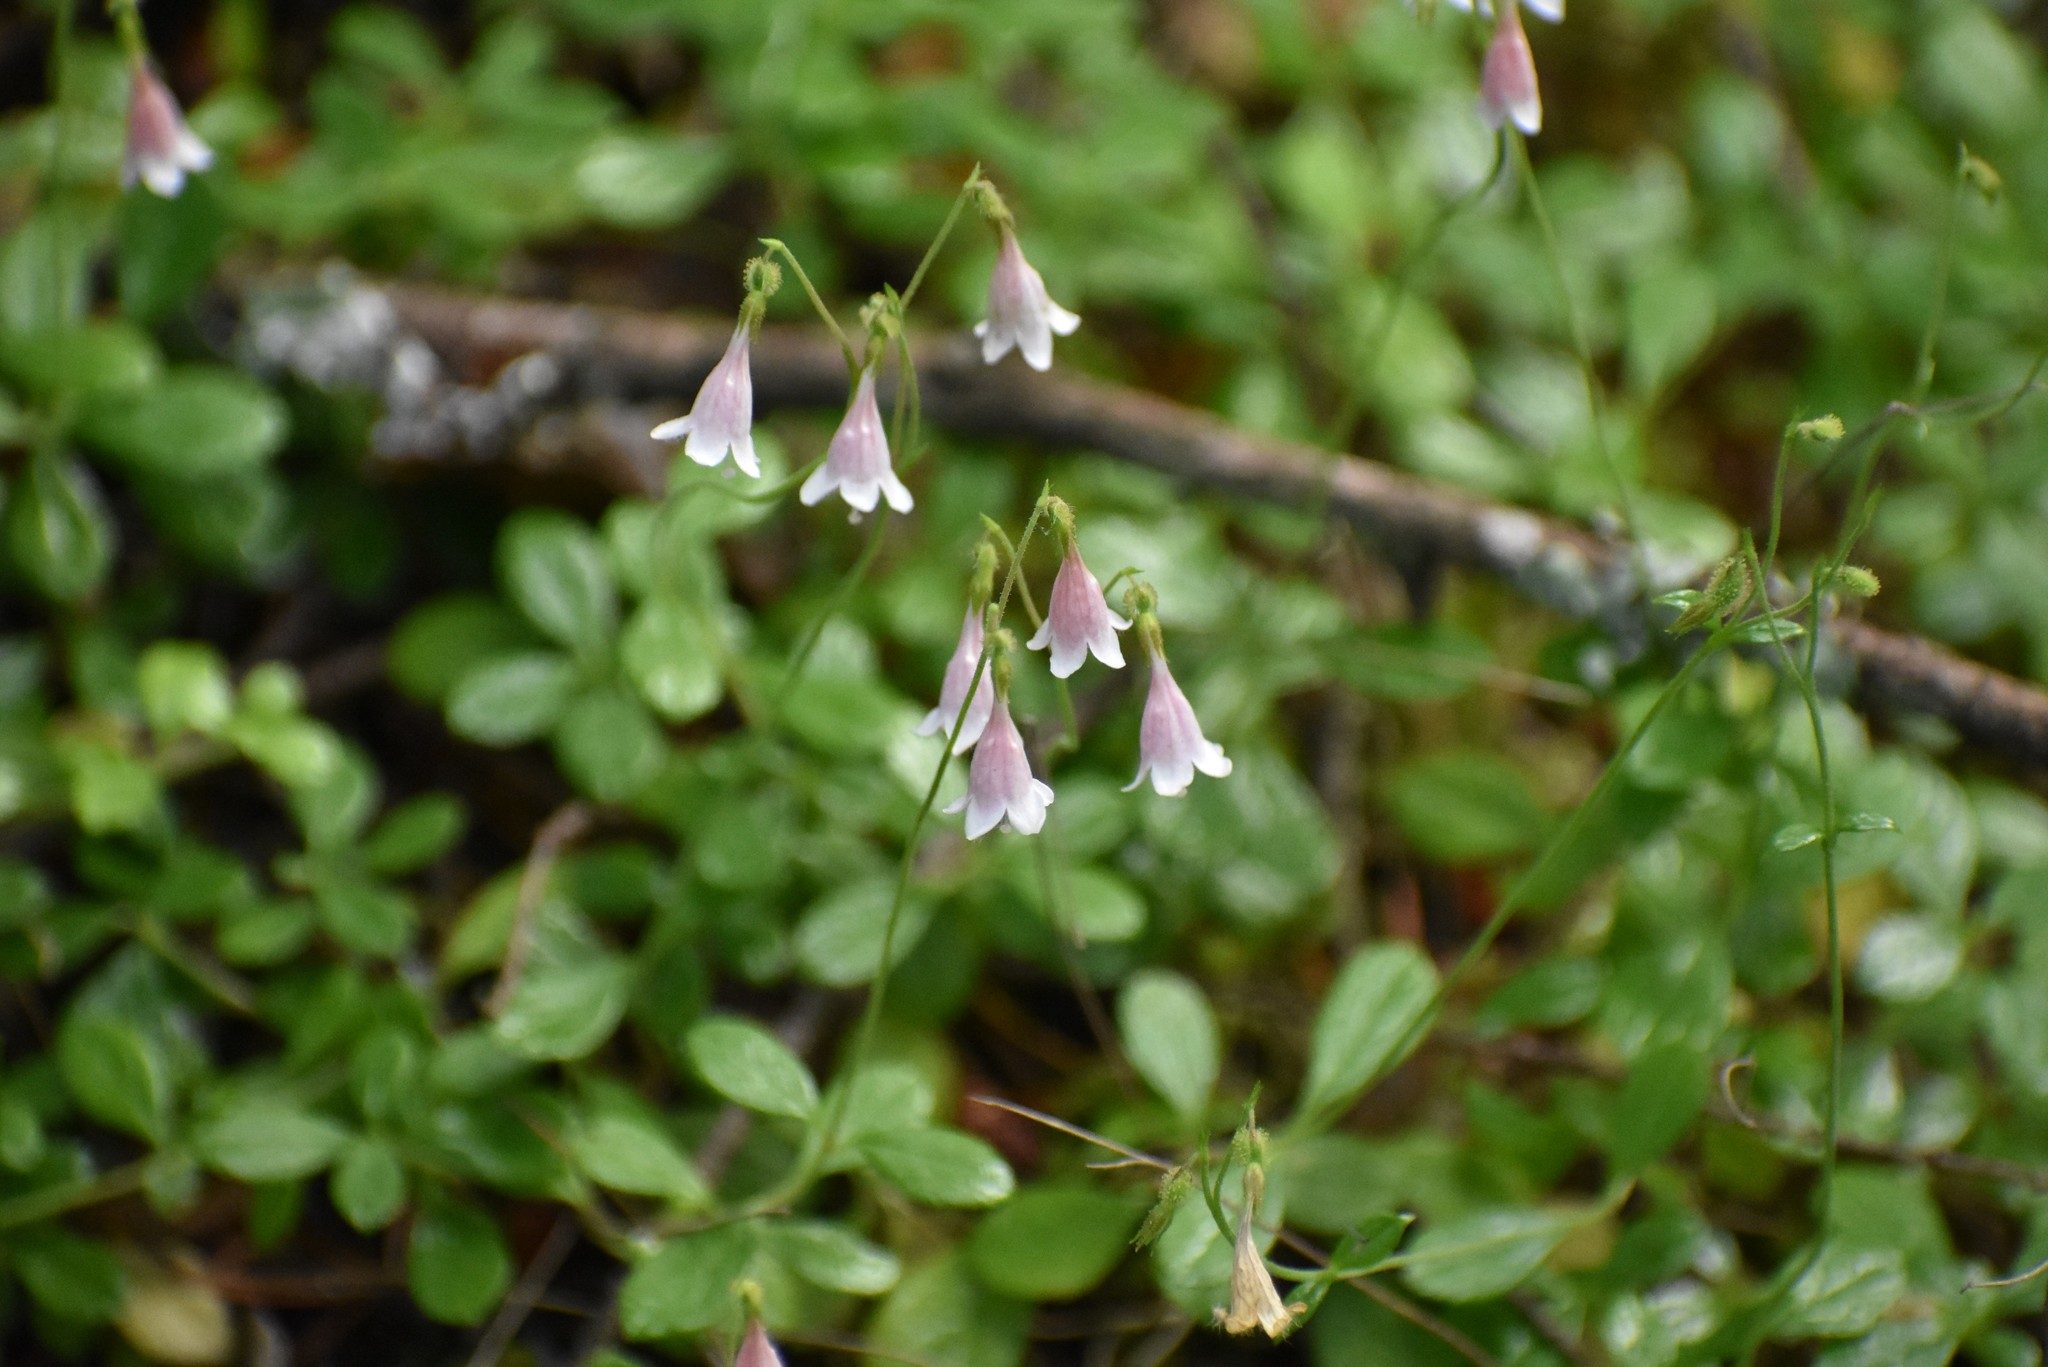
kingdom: Plantae
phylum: Tracheophyta
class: Magnoliopsida
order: Dipsacales
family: Caprifoliaceae
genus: Linnaea
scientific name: Linnaea borealis
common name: Twinflower
